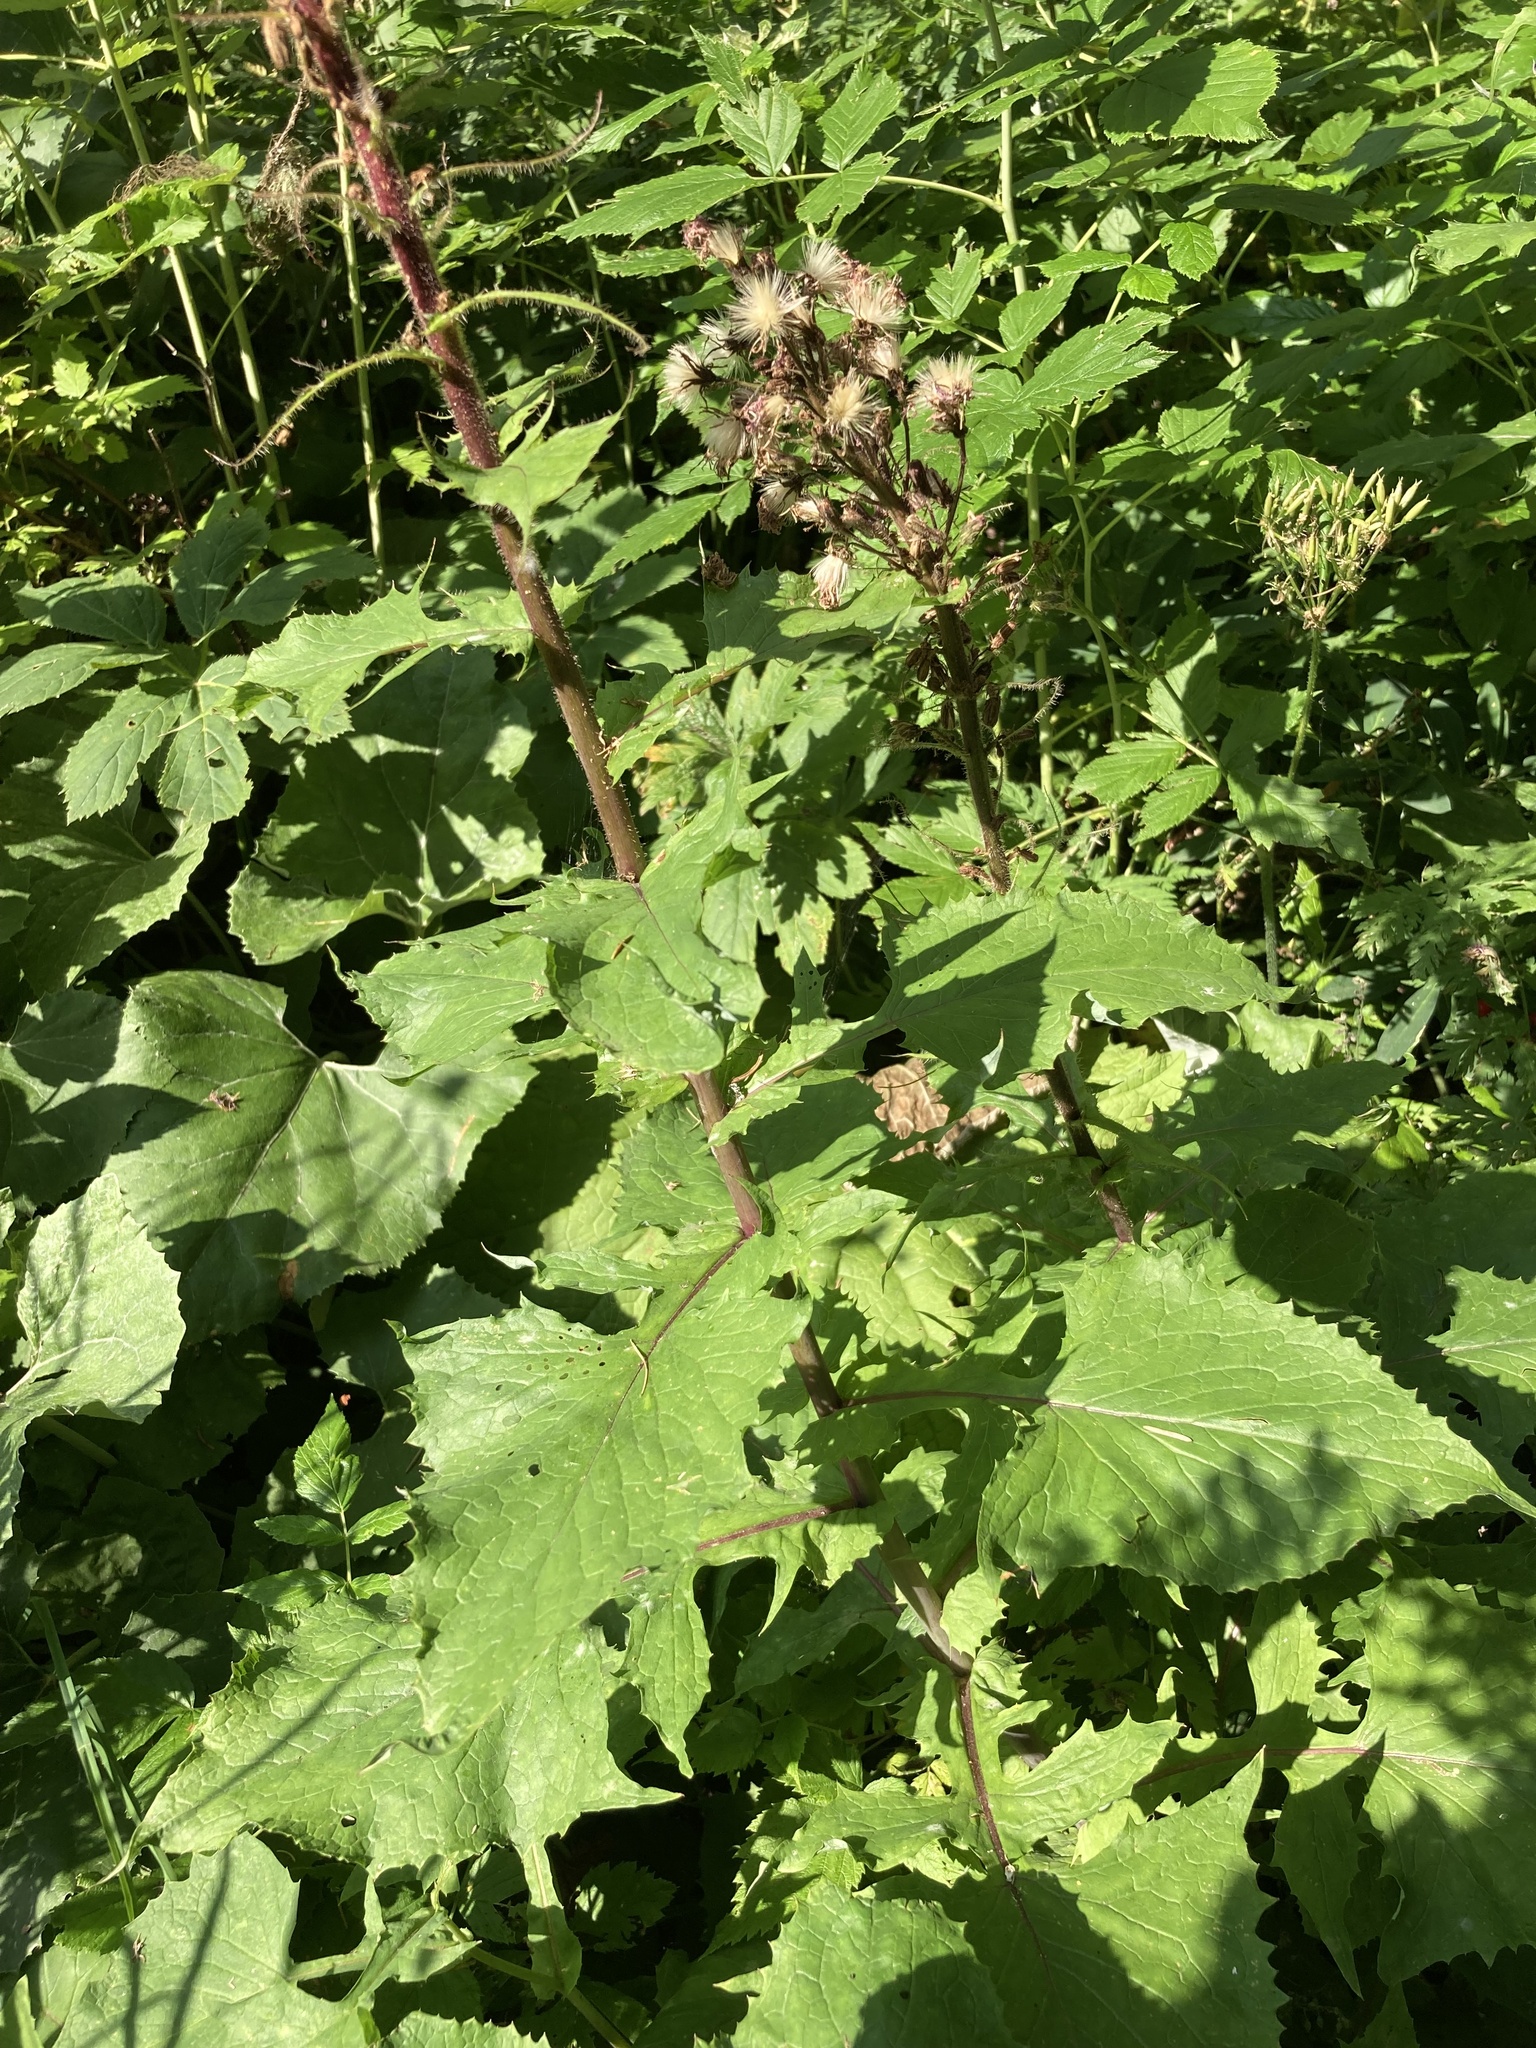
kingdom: Plantae
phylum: Tracheophyta
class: Magnoliopsida
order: Asterales
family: Asteraceae
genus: Cicerbita
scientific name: Cicerbita alpina
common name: Alpine blue-sow-thistle
